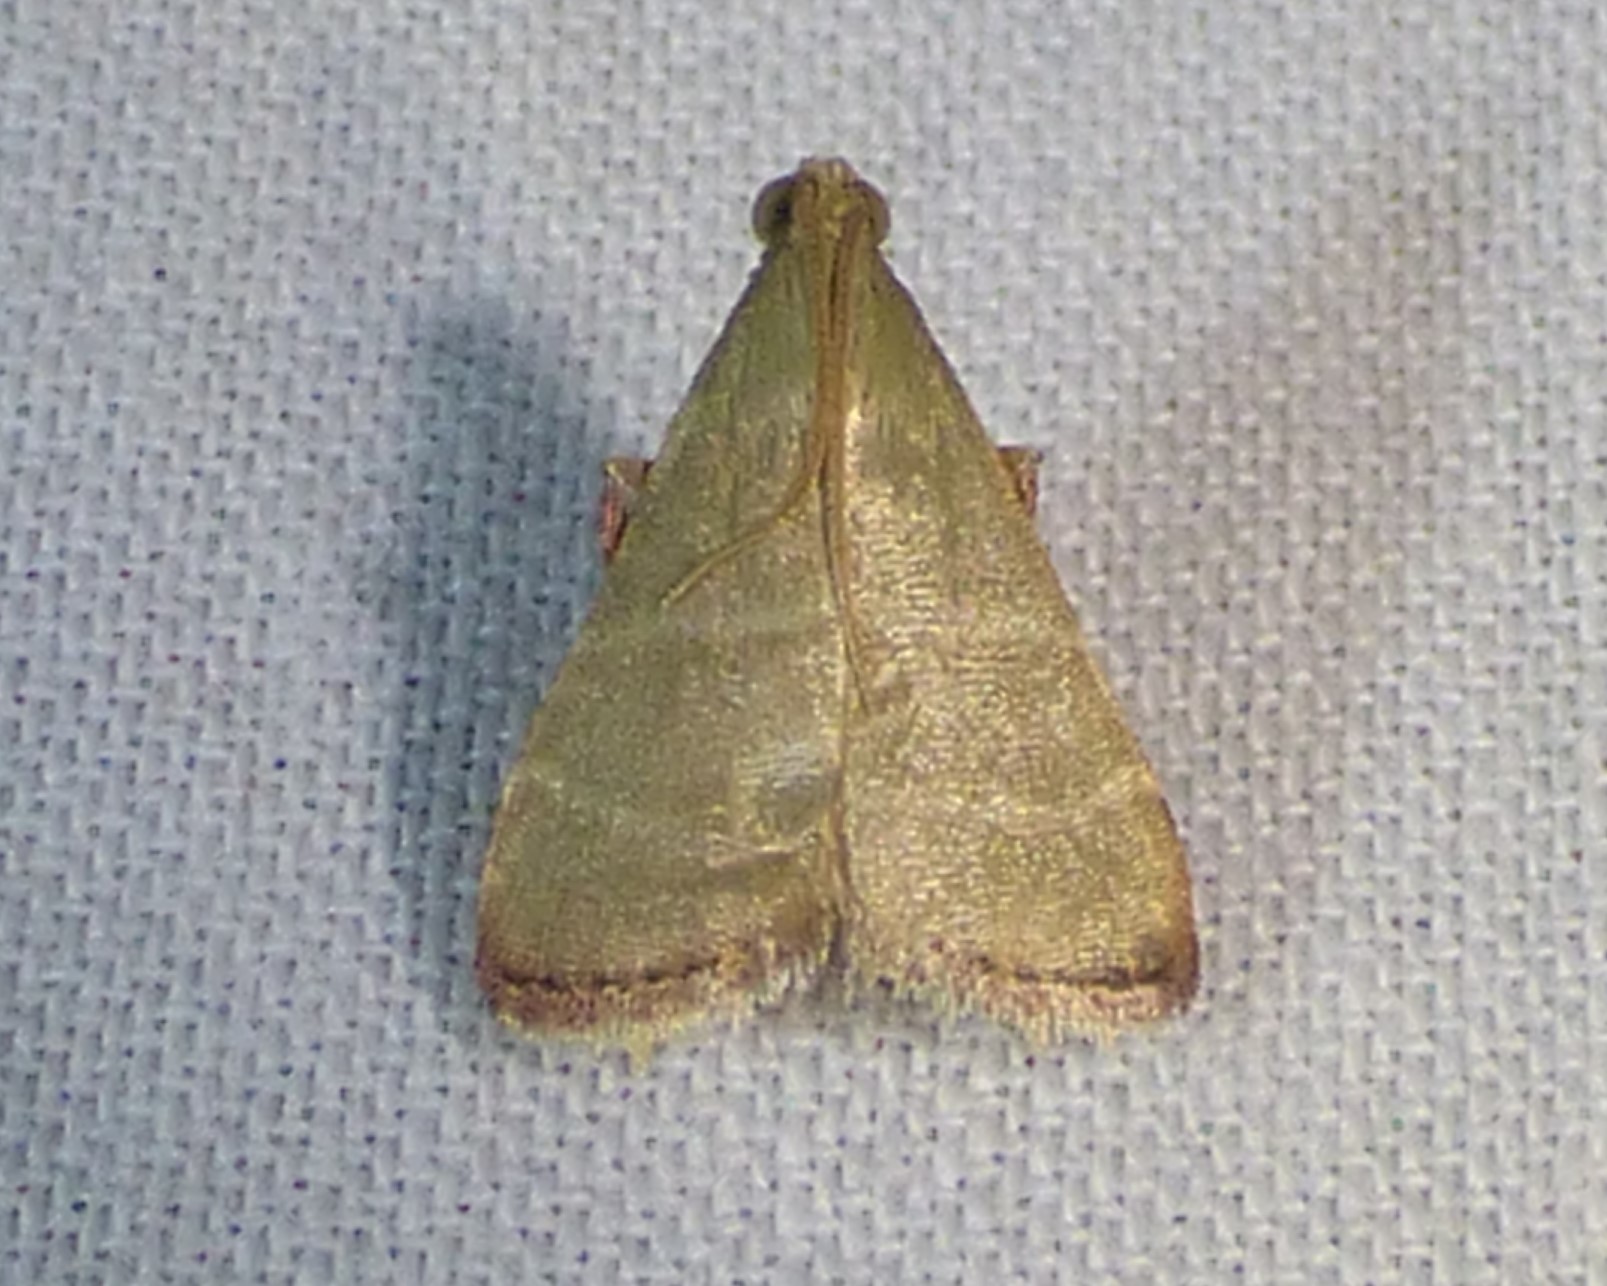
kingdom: Animalia
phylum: Arthropoda
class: Insecta
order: Lepidoptera
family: Pyralidae
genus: Arta
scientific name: Arta olivalis
